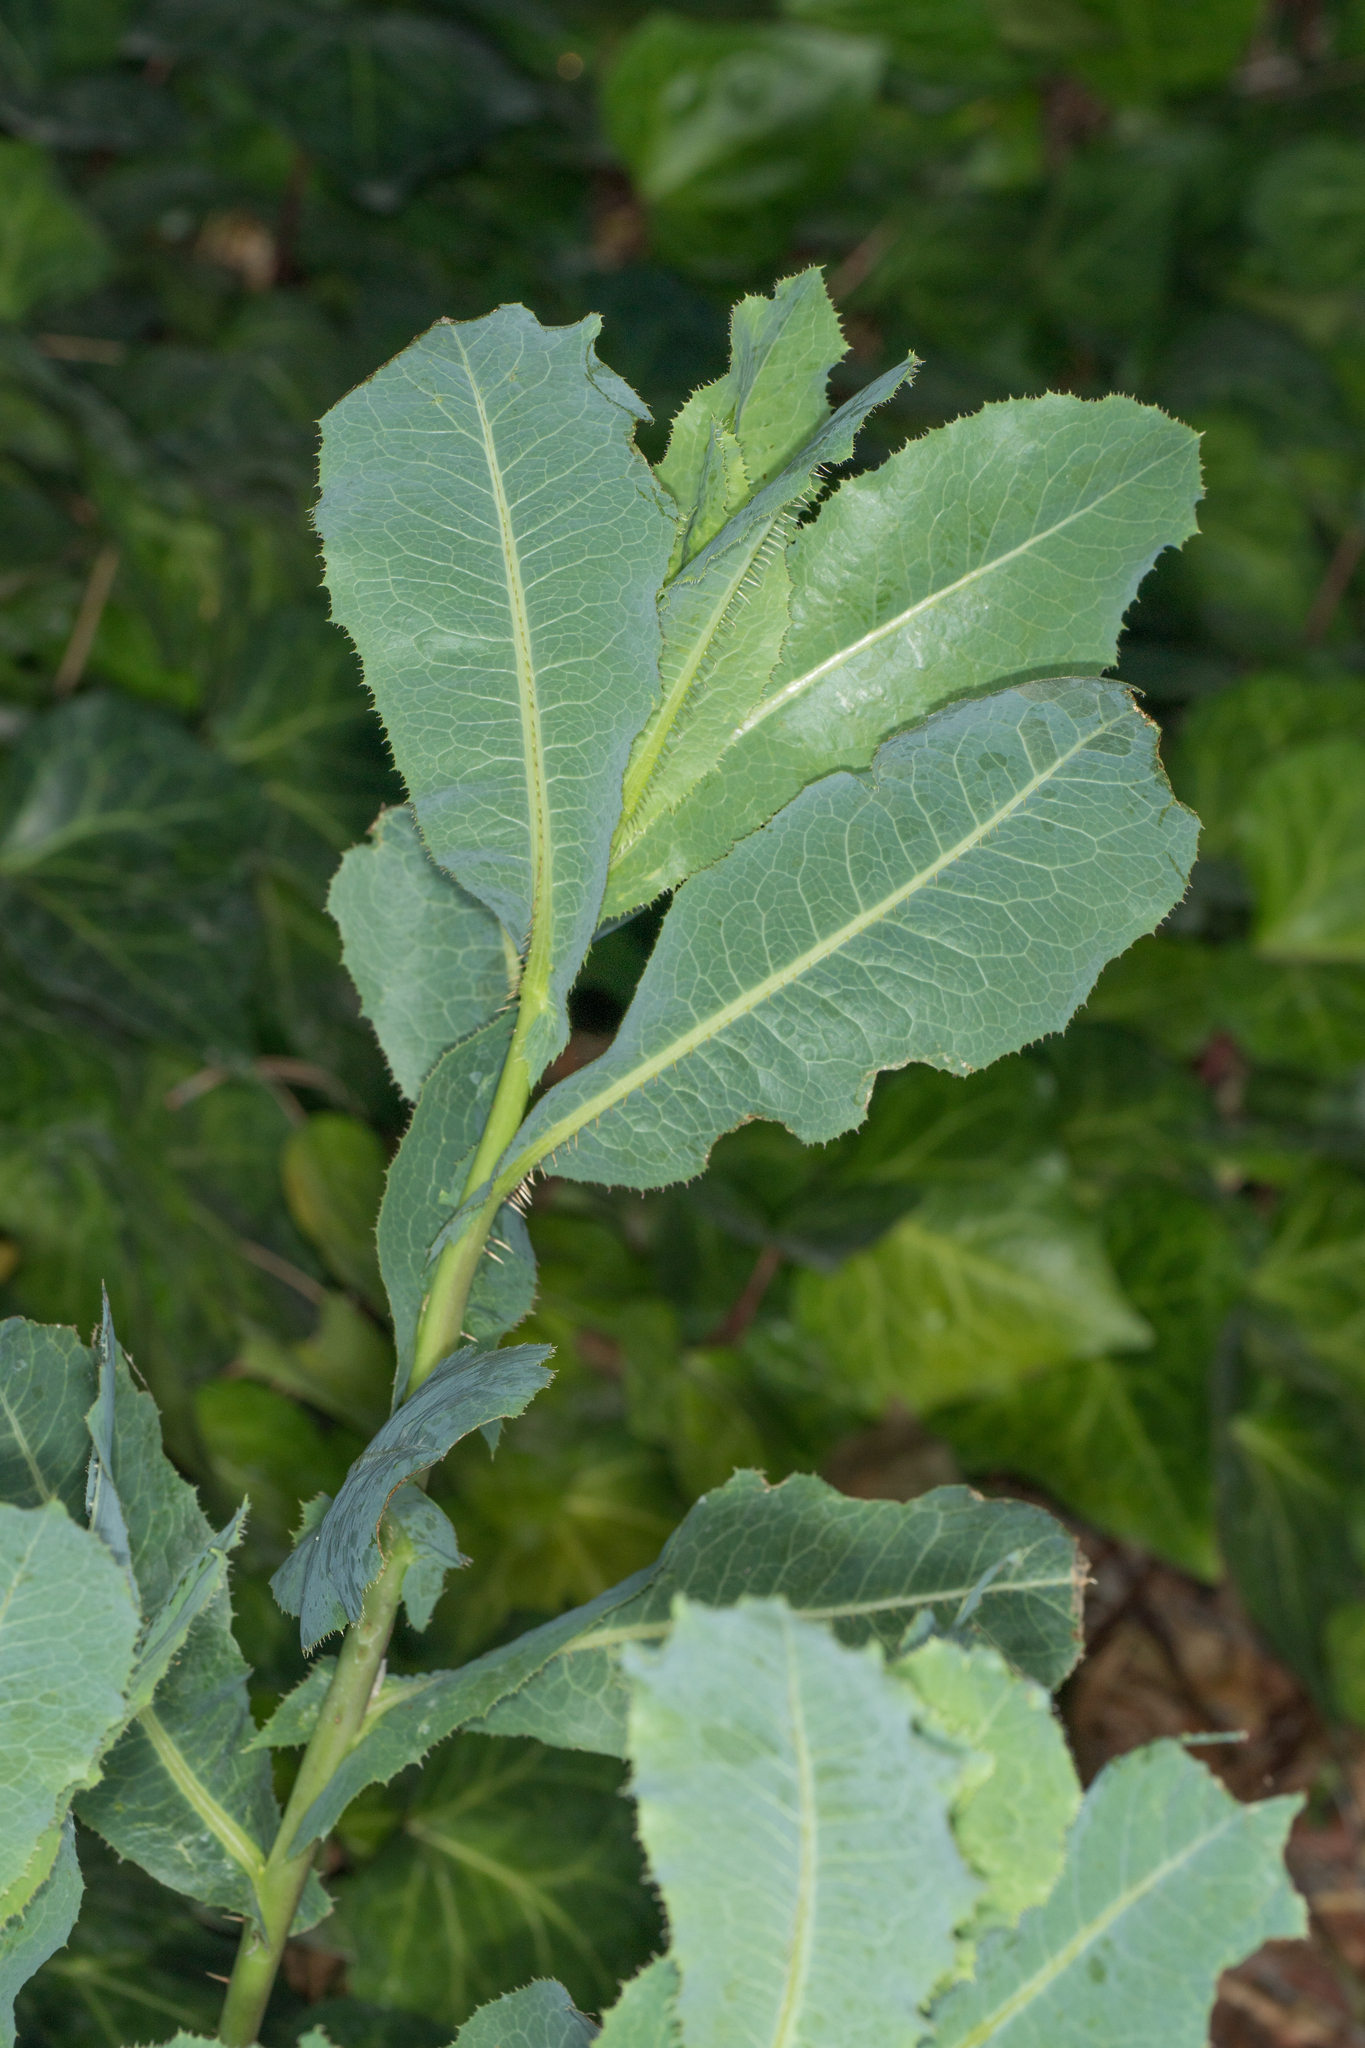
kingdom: Plantae
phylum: Tracheophyta
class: Magnoliopsida
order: Asterales
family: Asteraceae
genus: Lactuca
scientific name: Lactuca serriola
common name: Prickly lettuce
